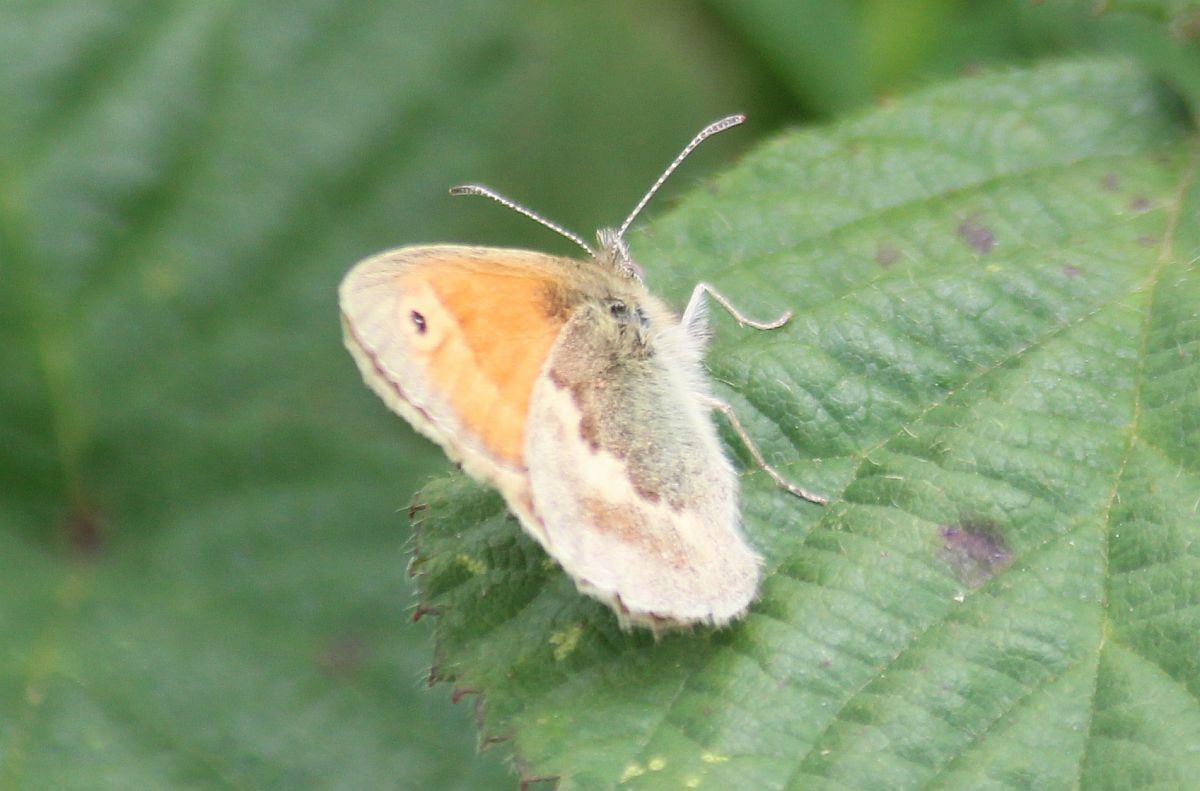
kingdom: Animalia
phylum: Arthropoda
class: Insecta
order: Lepidoptera
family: Nymphalidae
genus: Coenonympha
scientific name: Coenonympha pamphilus
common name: Small heath
